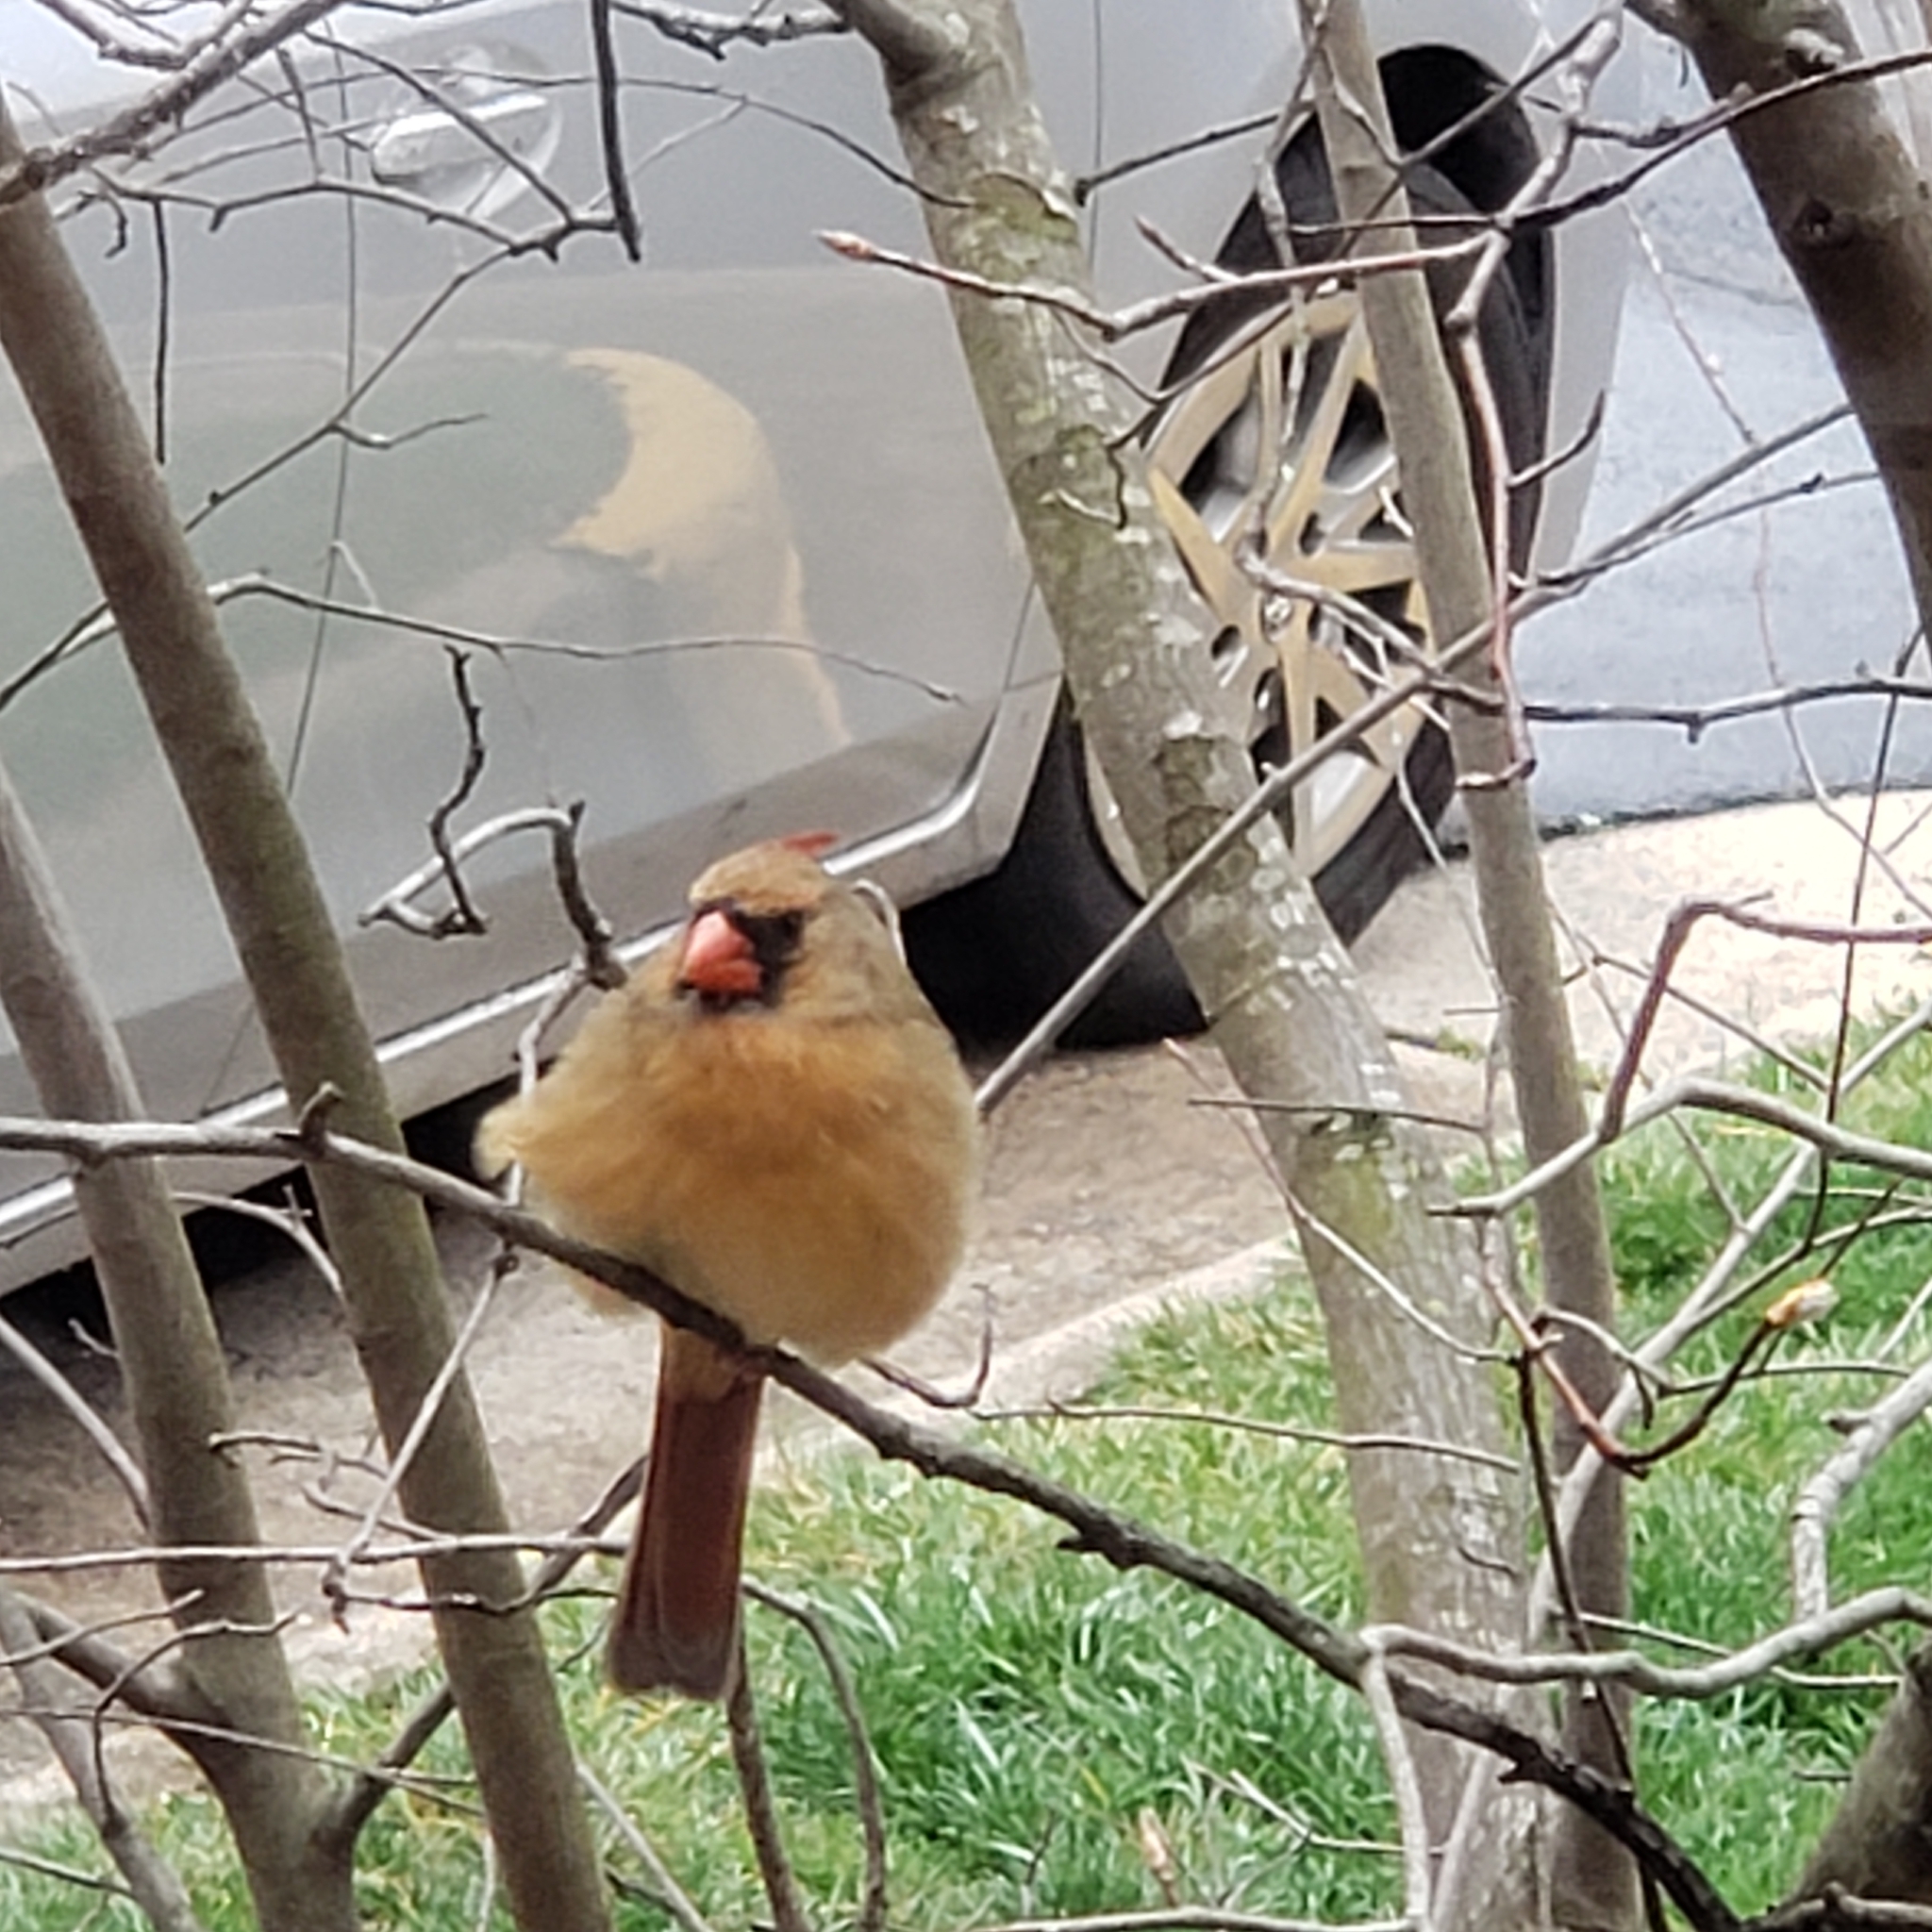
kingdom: Animalia
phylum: Chordata
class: Aves
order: Passeriformes
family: Cardinalidae
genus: Cardinalis
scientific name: Cardinalis cardinalis
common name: Northern cardinal
